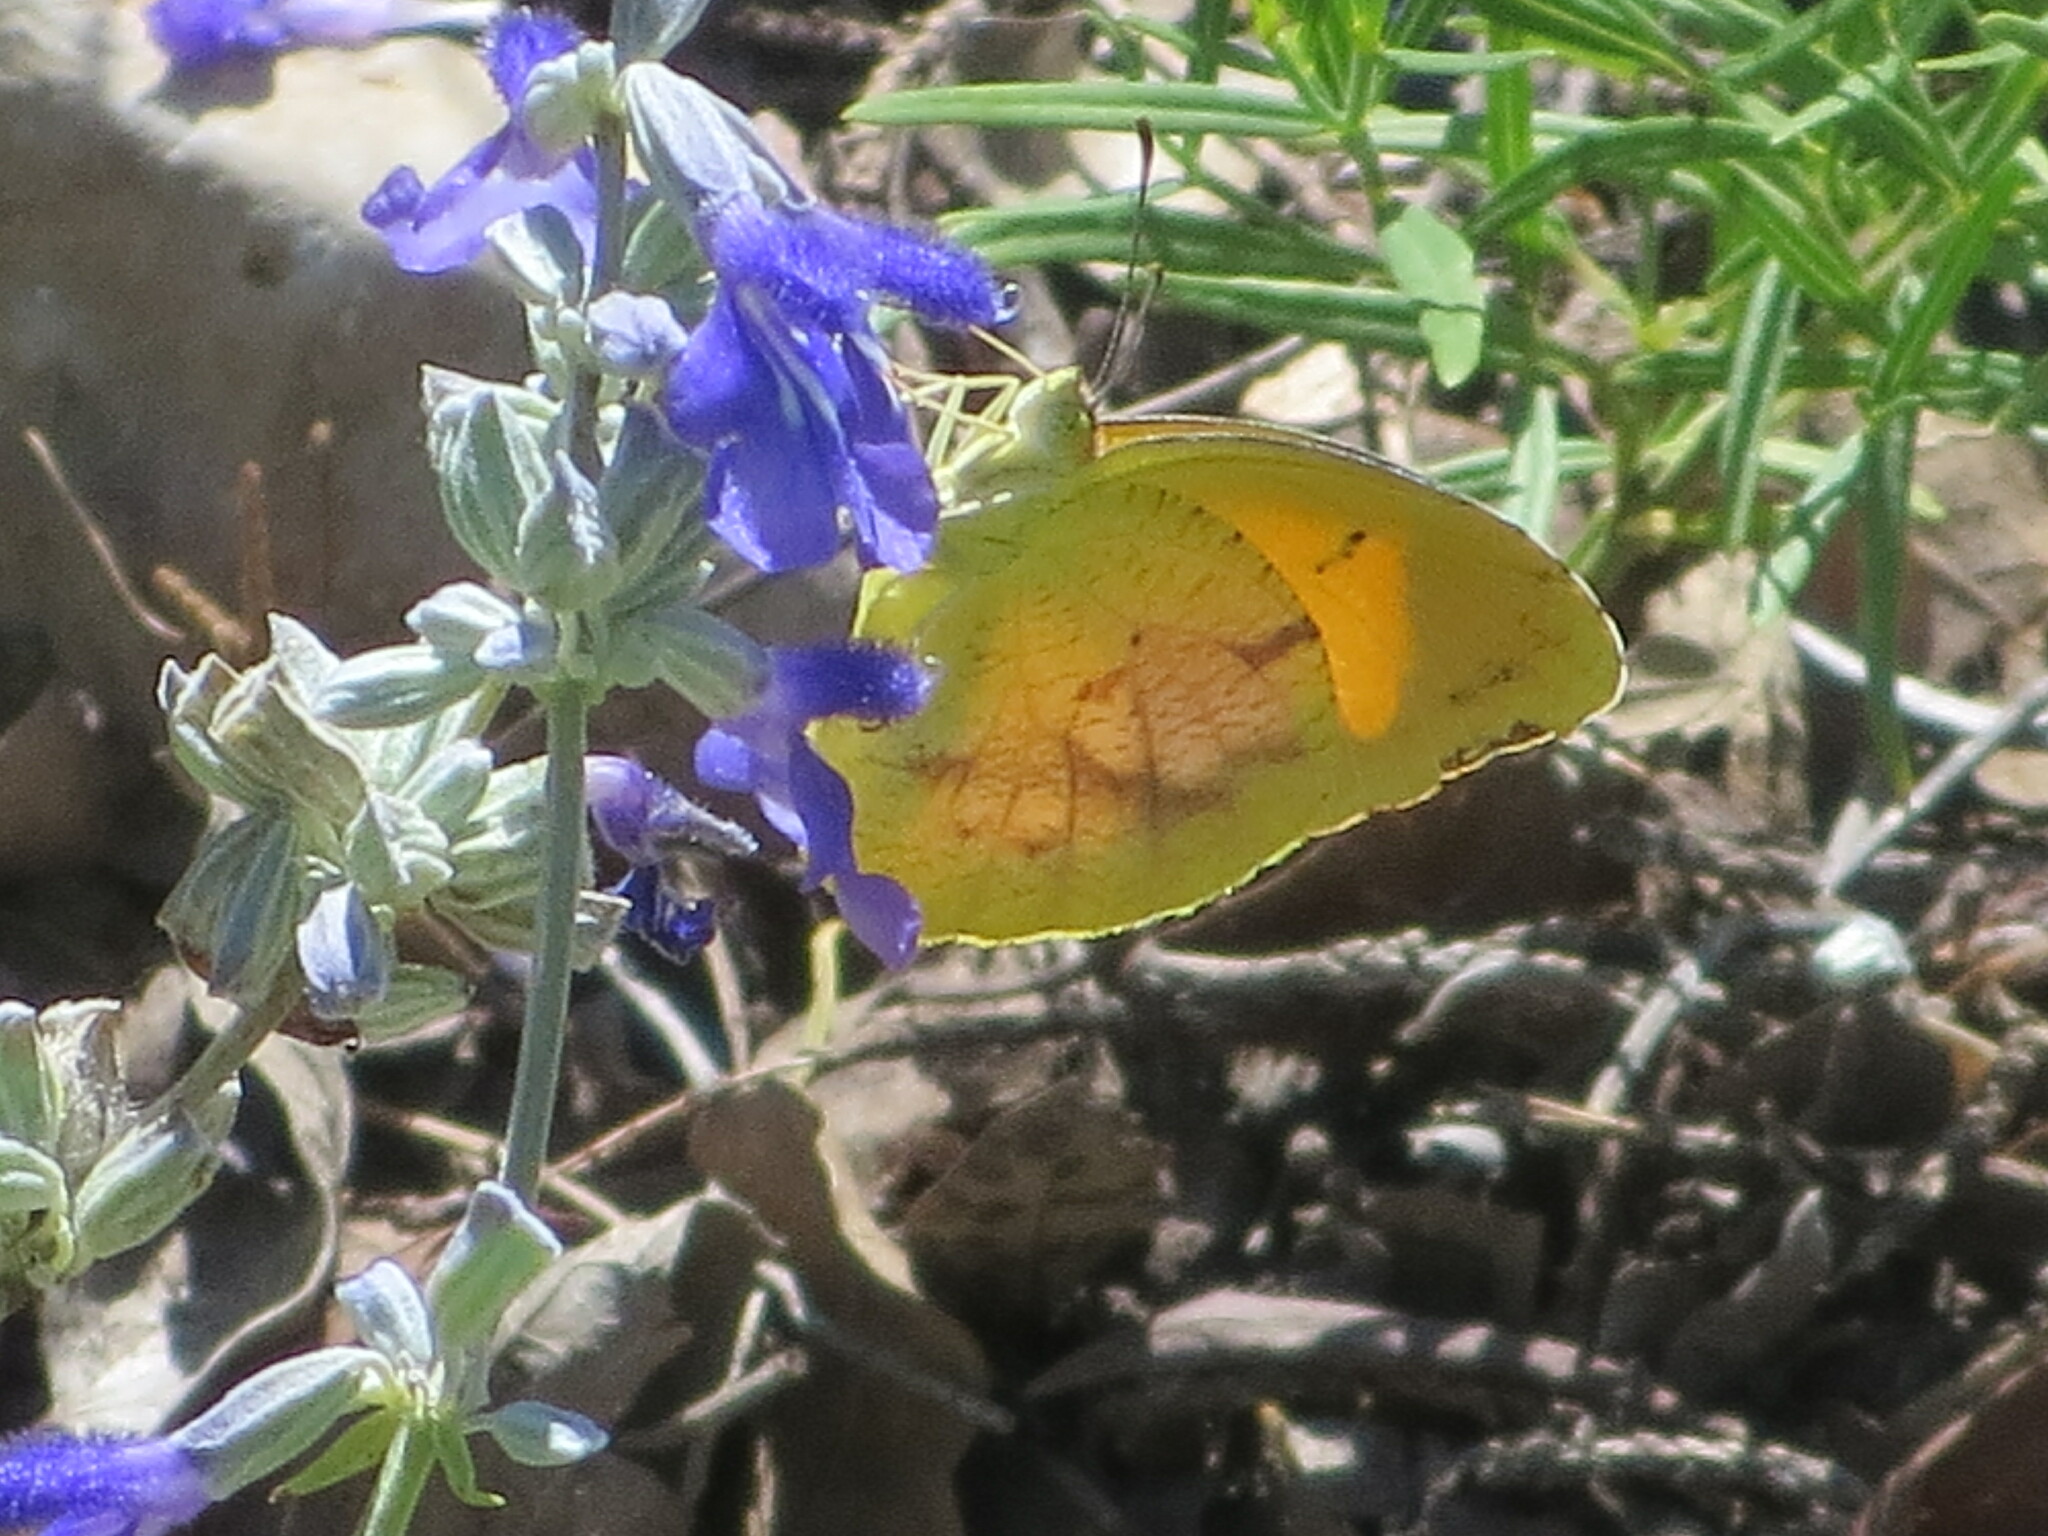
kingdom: Animalia
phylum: Arthropoda
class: Insecta
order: Lepidoptera
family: Pieridae
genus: Abaeis
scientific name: Abaeis nicippe
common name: Sleepy orange
